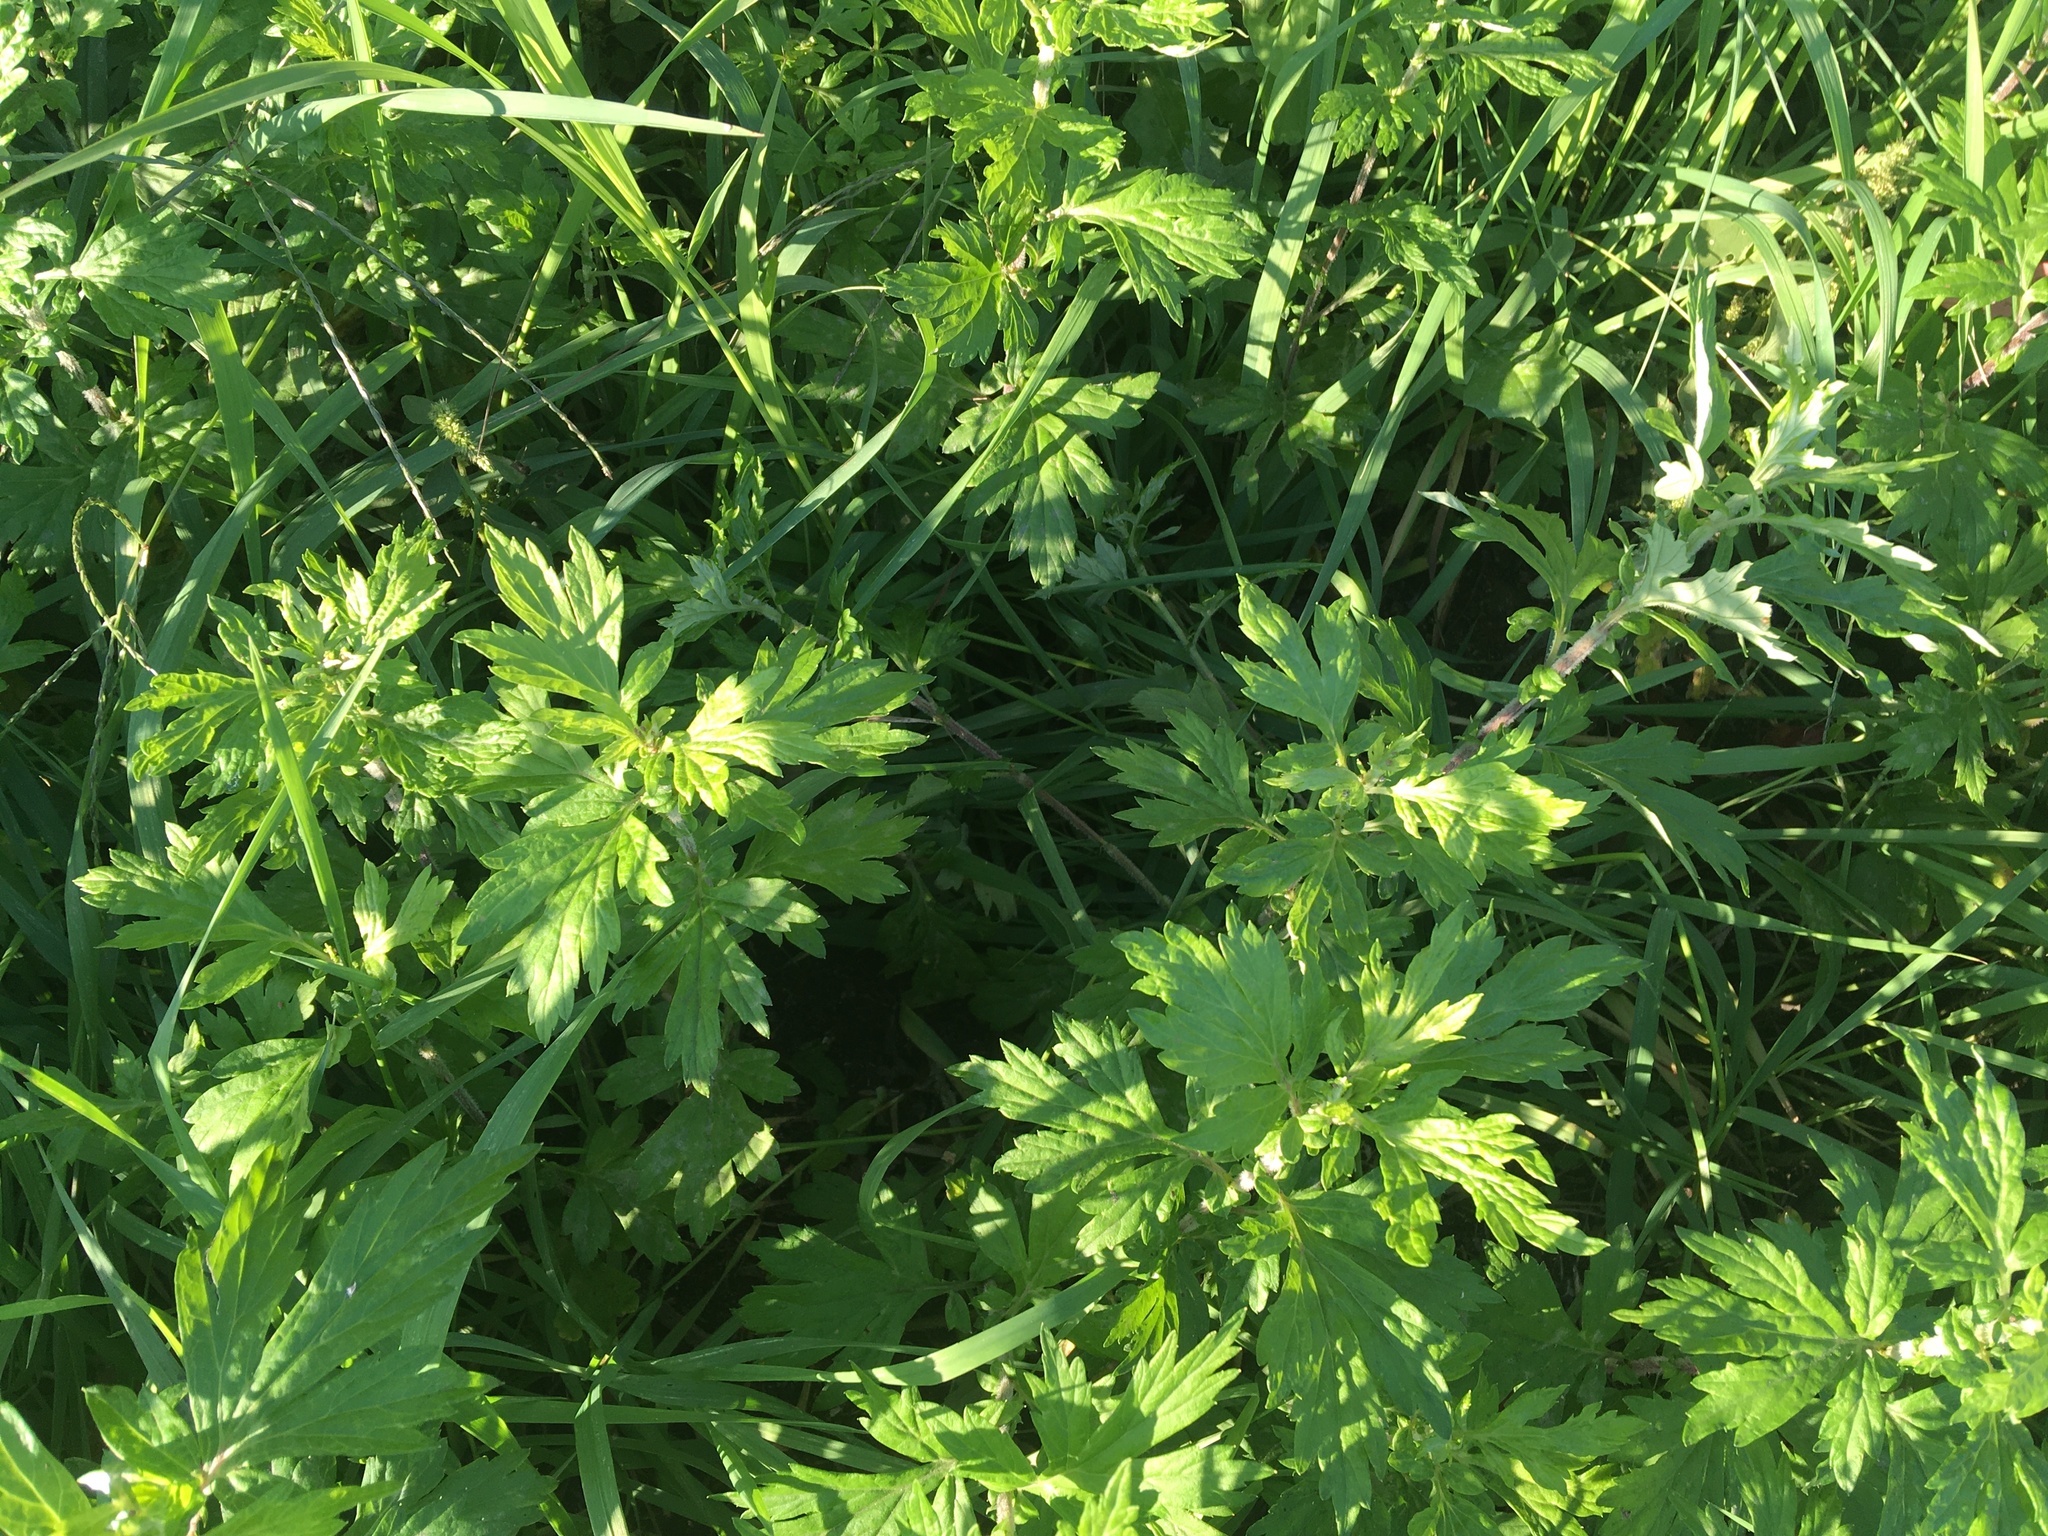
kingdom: Plantae
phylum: Tracheophyta
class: Magnoliopsida
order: Asterales
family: Asteraceae
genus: Artemisia
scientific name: Artemisia vulgaris
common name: Mugwort
